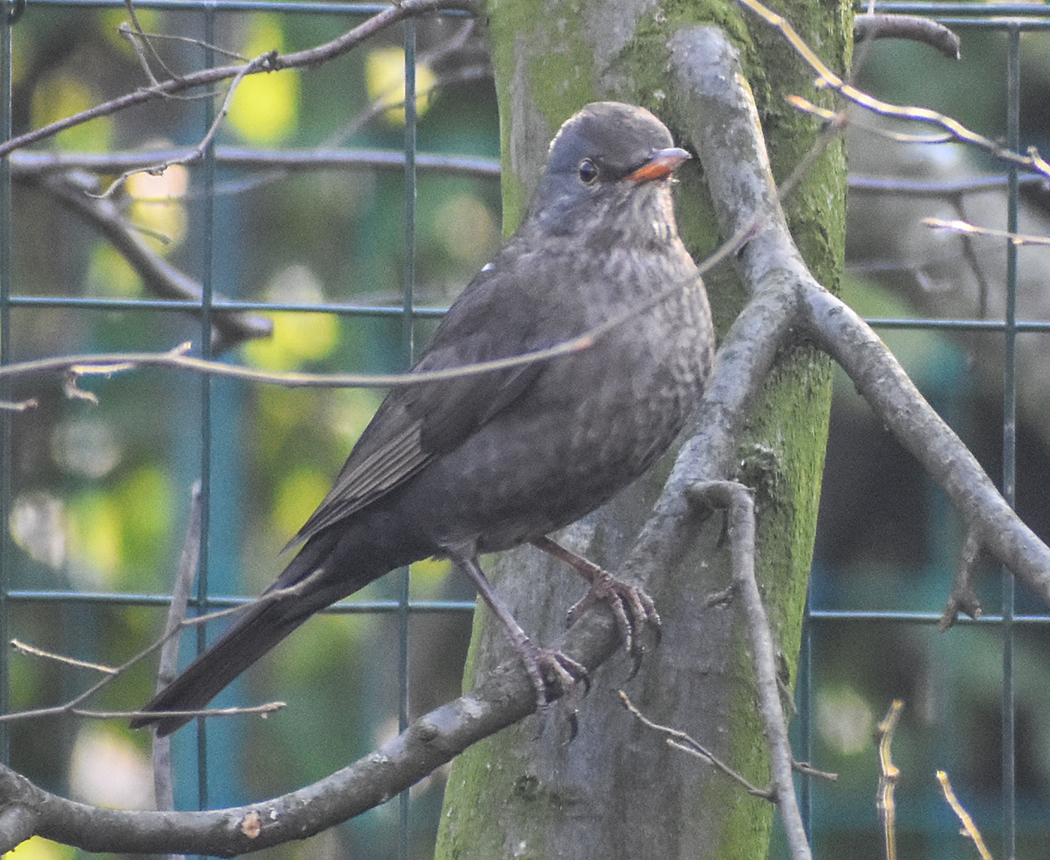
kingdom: Animalia
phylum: Chordata
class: Aves
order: Passeriformes
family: Turdidae
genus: Turdus
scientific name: Turdus merula
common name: Common blackbird
